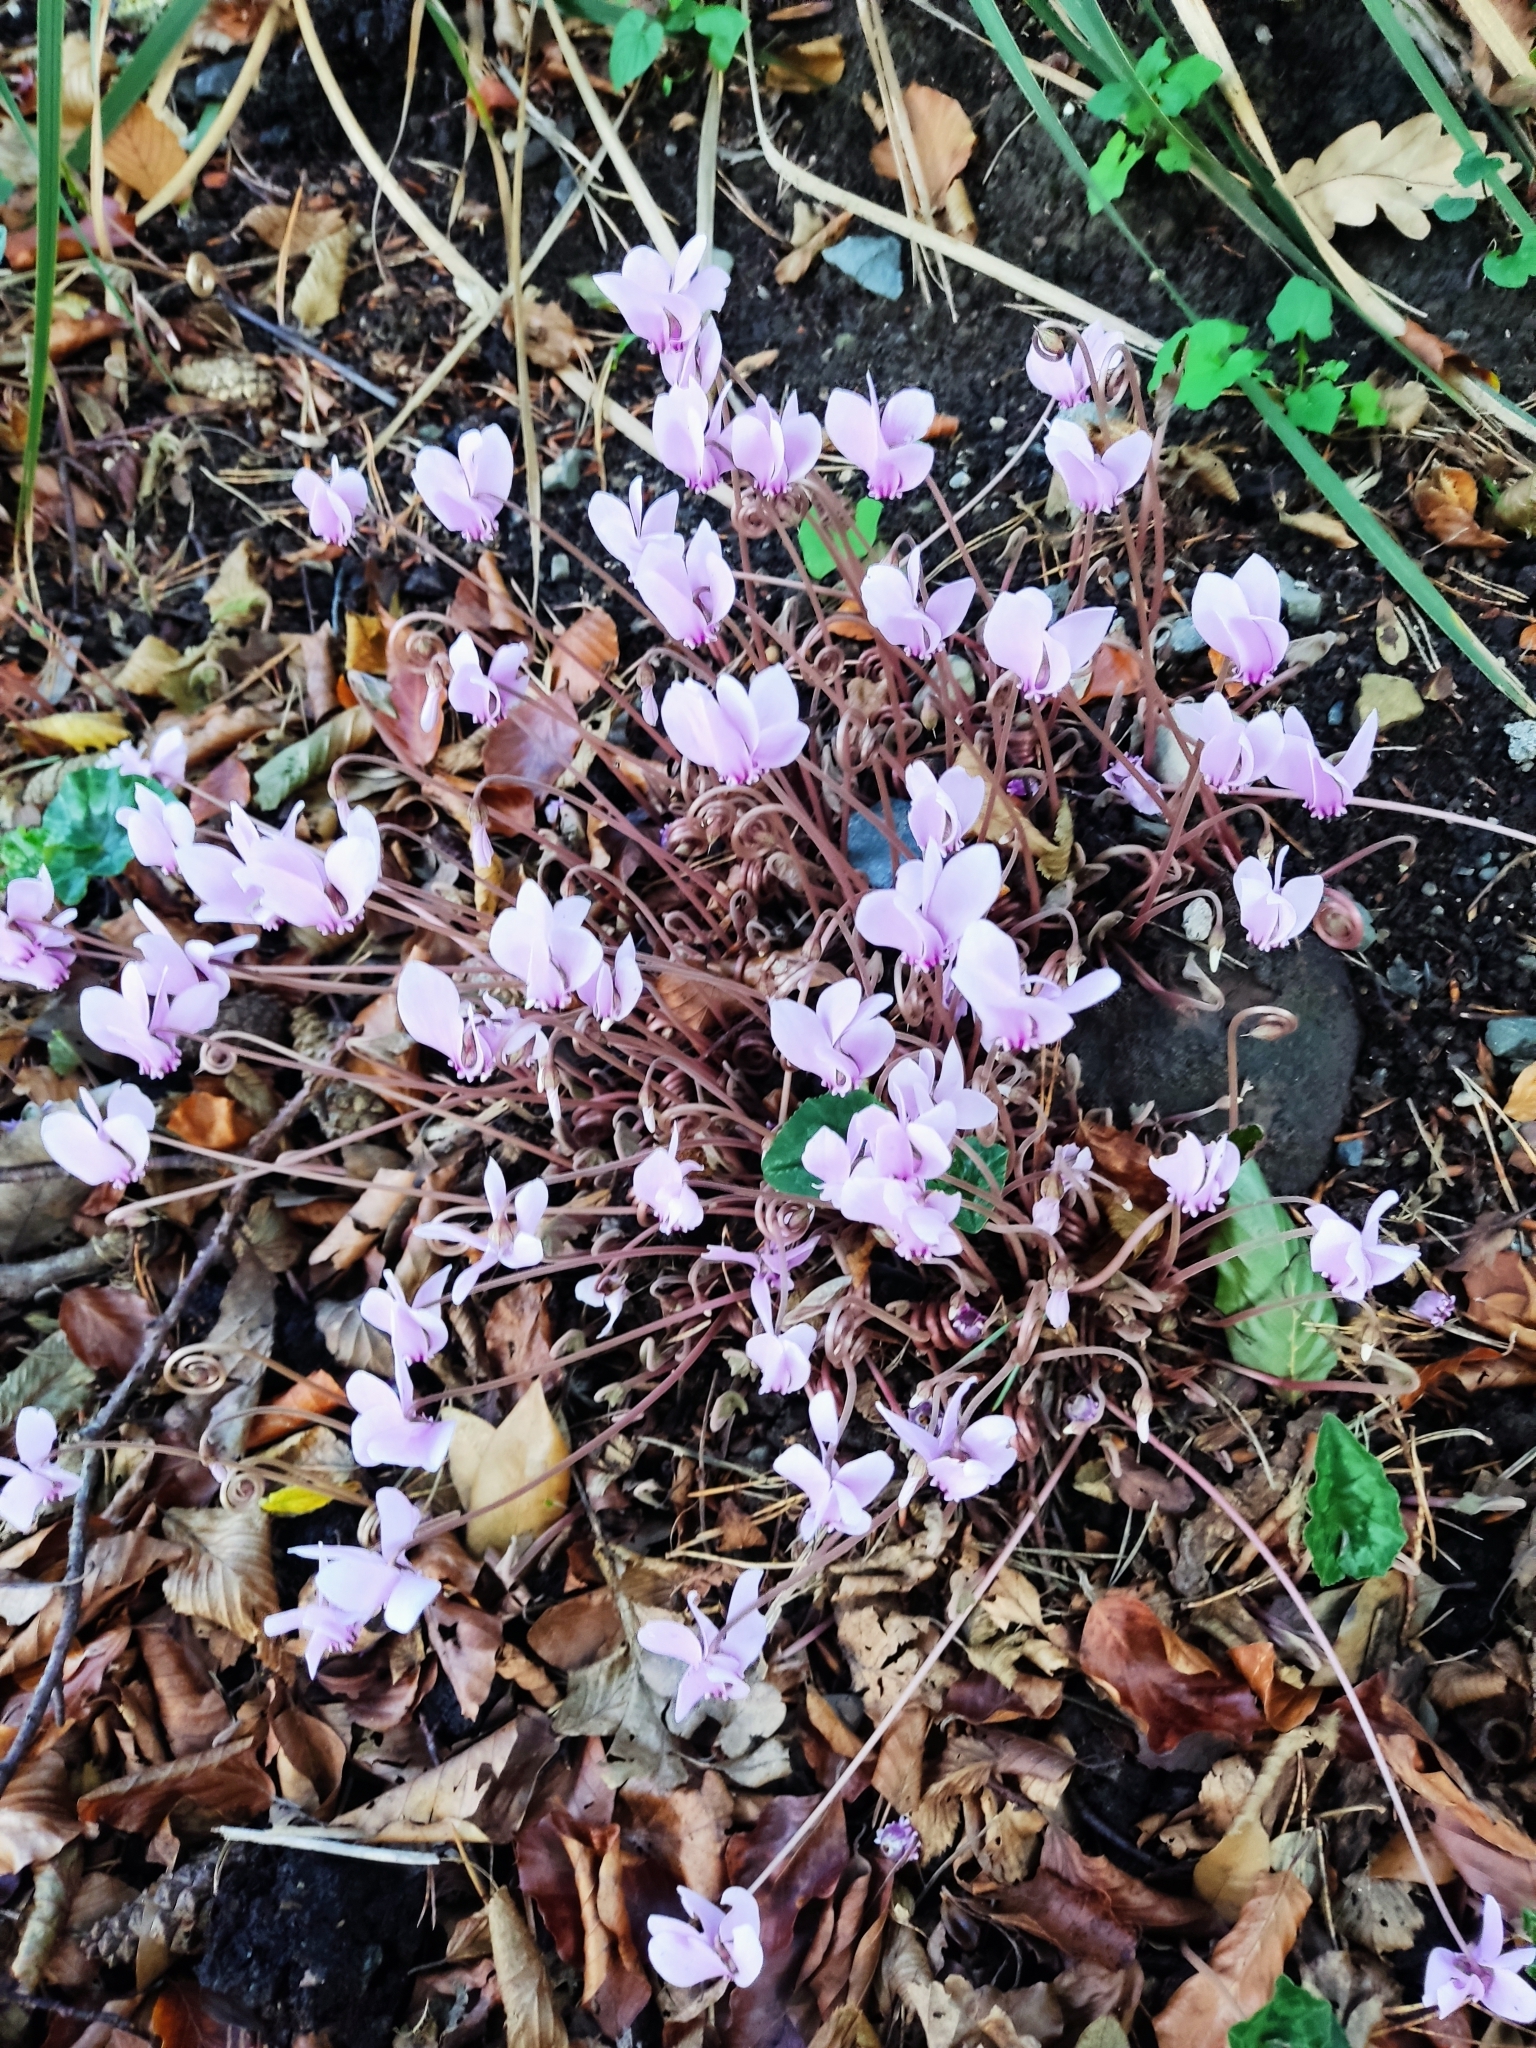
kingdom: Plantae
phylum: Tracheophyta
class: Magnoliopsida
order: Ericales
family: Primulaceae
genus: Cyclamen
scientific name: Cyclamen hederifolium
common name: Sowbread
